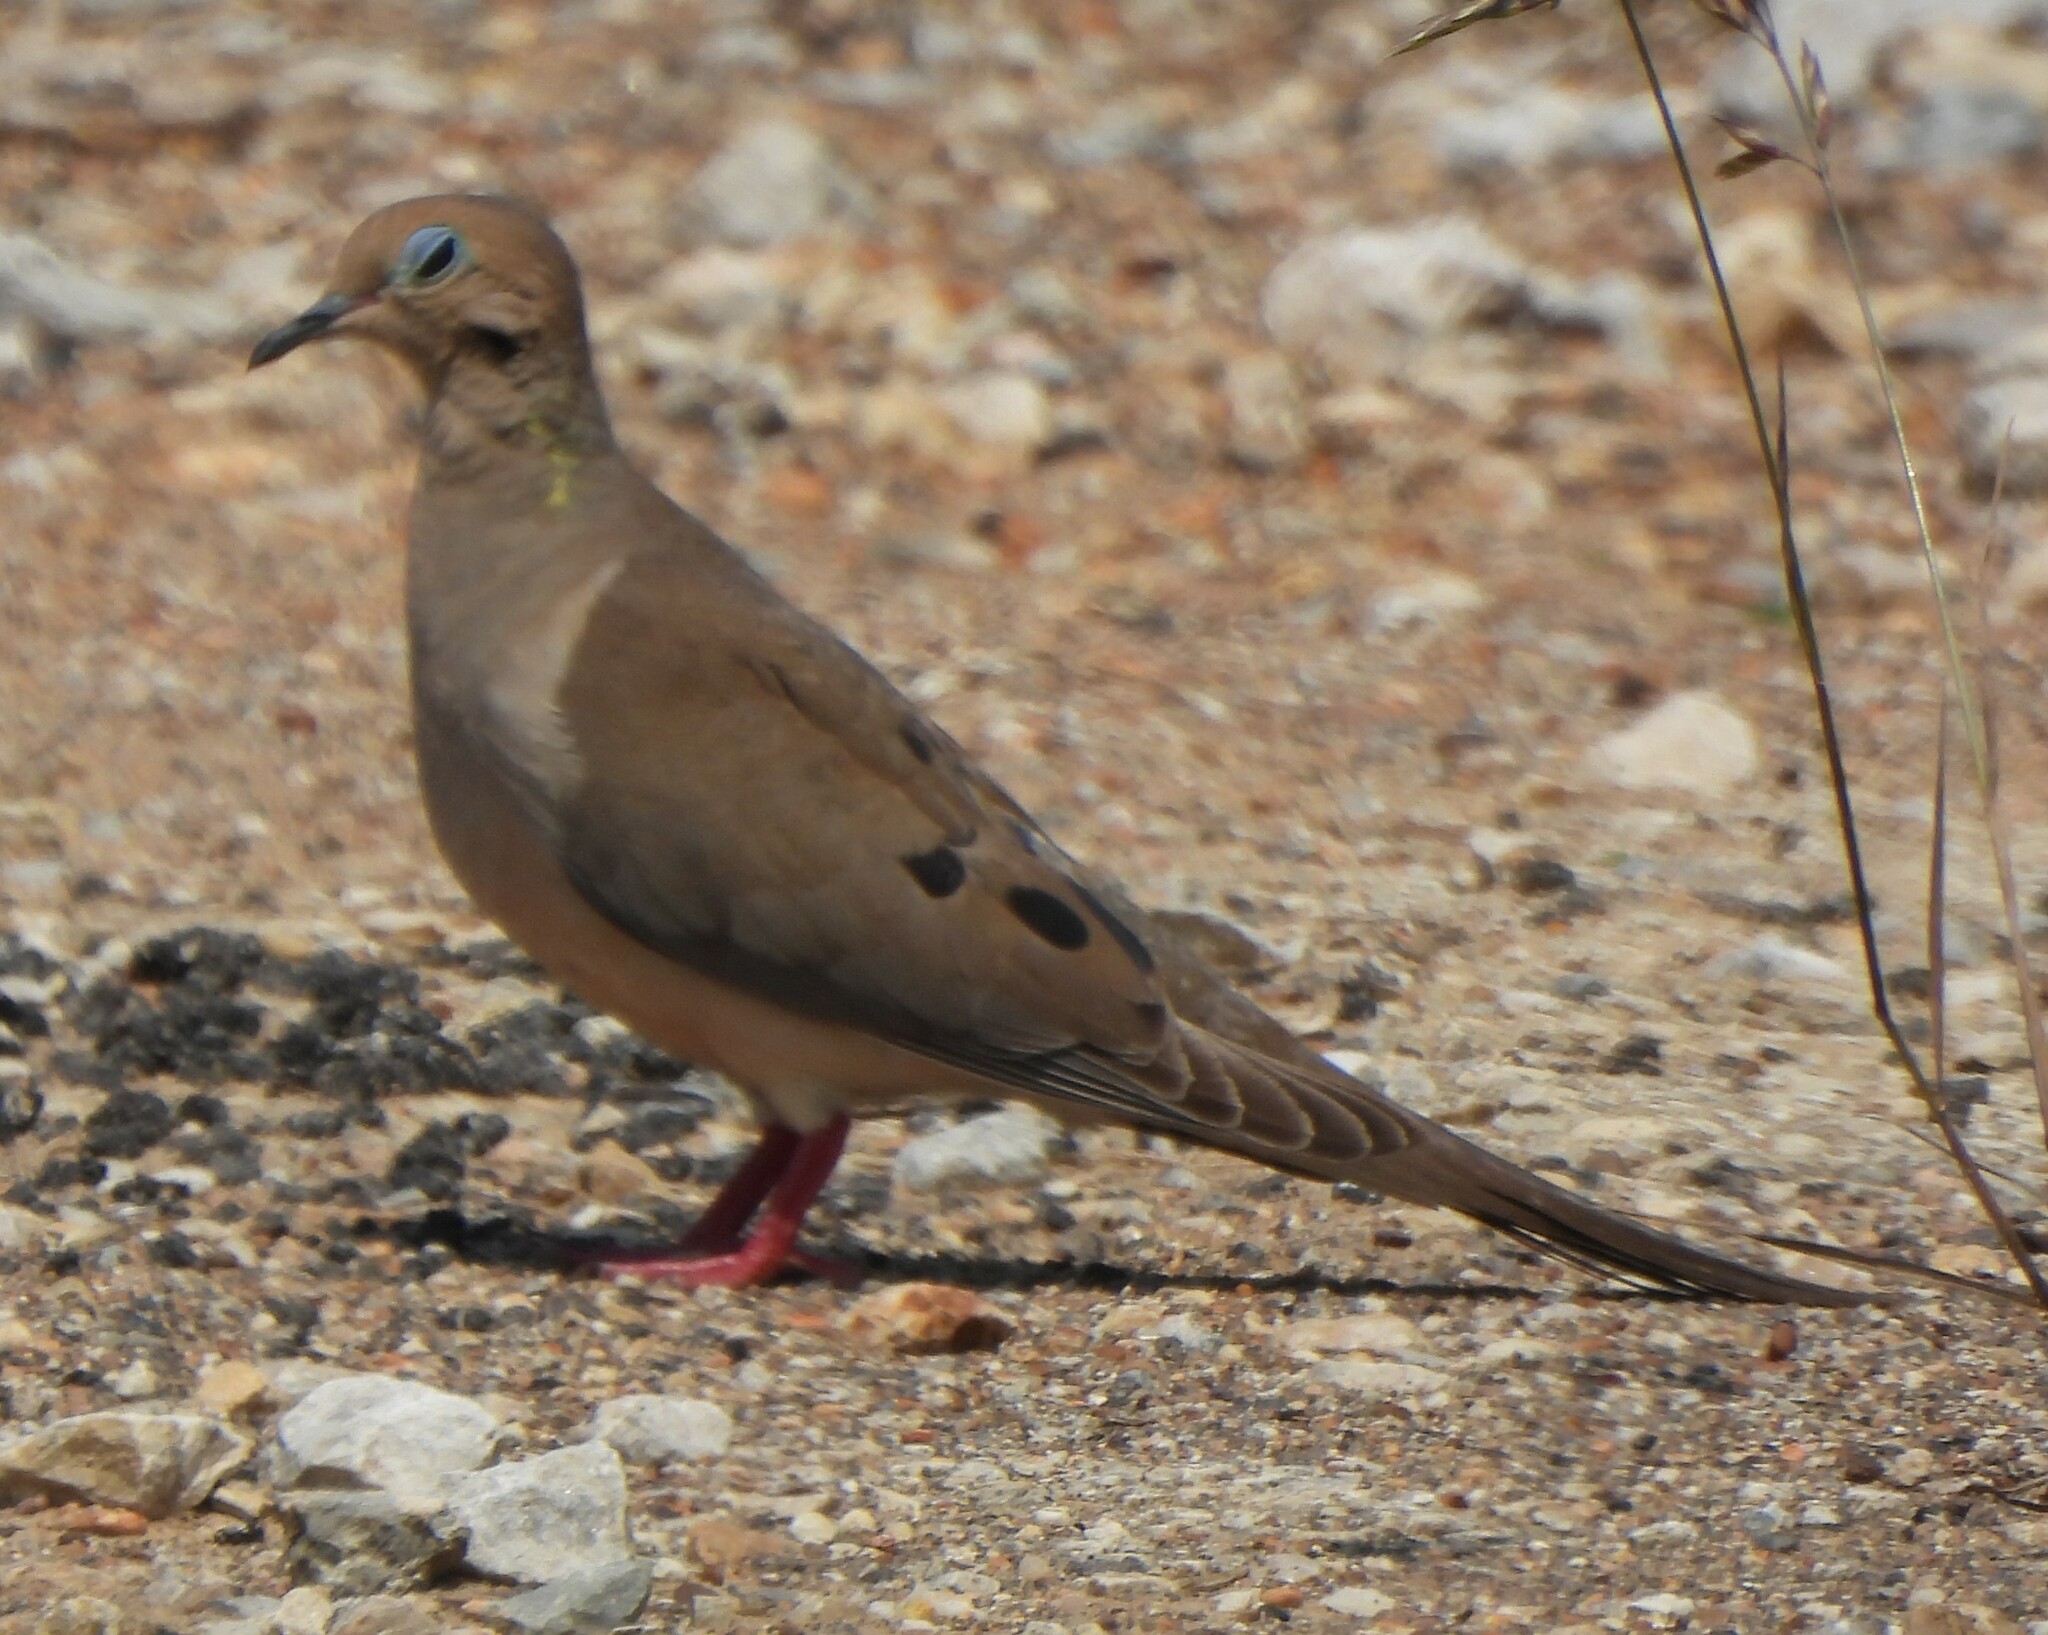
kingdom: Animalia
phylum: Chordata
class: Aves
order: Columbiformes
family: Columbidae
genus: Zenaida
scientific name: Zenaida macroura
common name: Mourning dove
